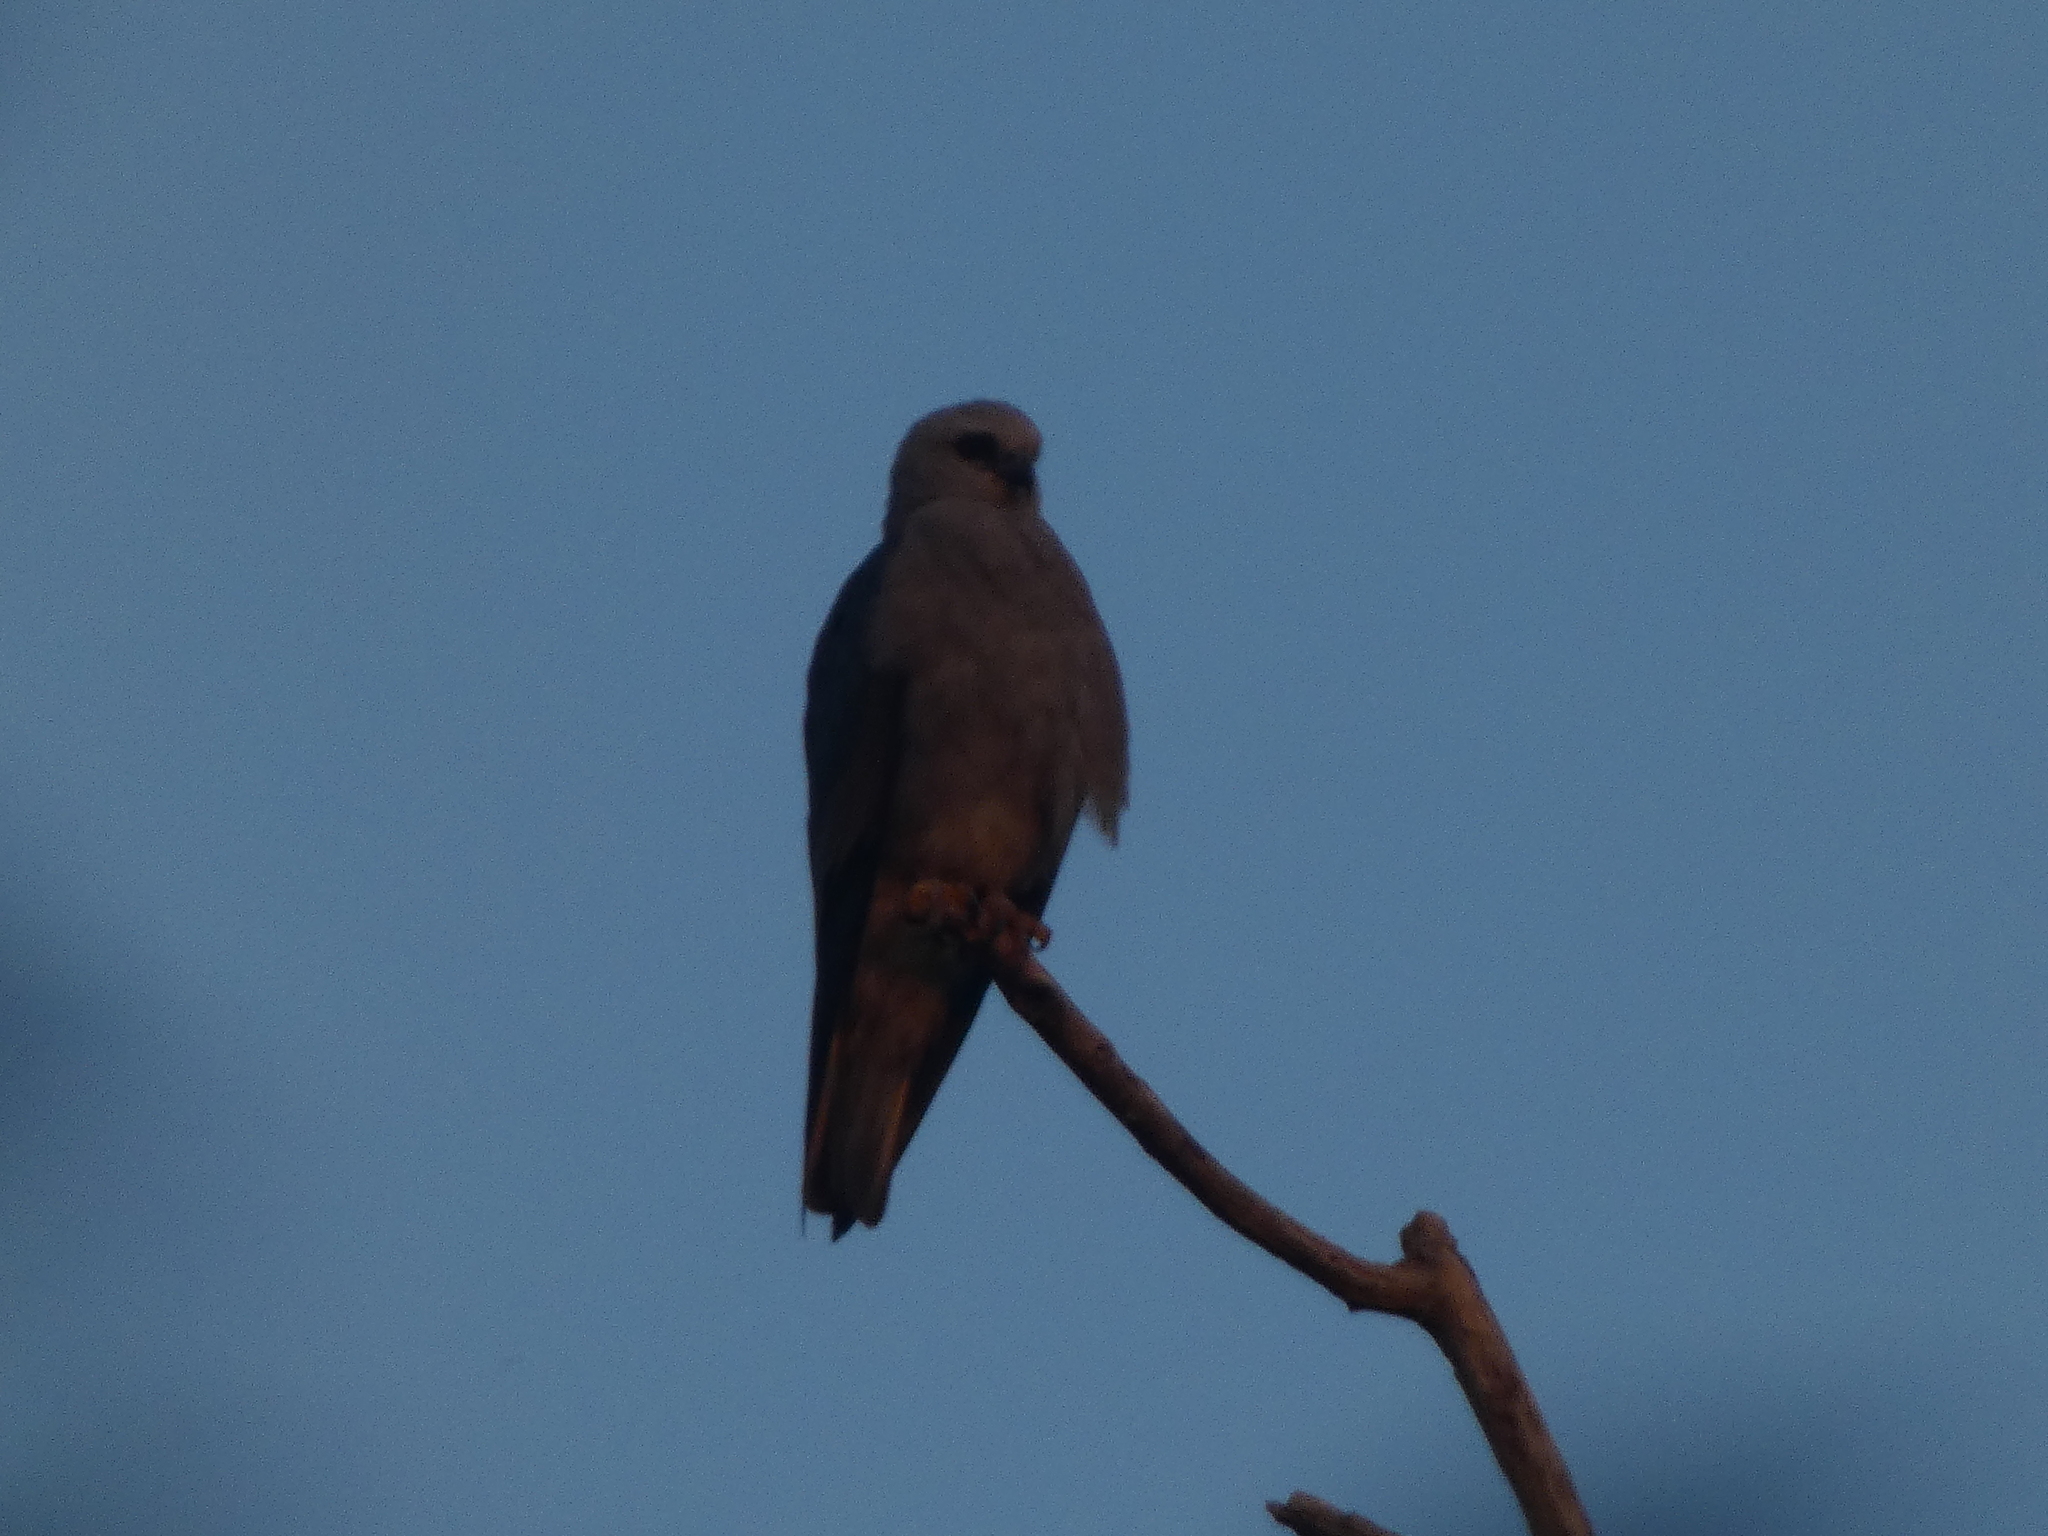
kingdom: Animalia
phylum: Chordata
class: Aves
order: Accipitriformes
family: Accipitridae
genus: Ictinia
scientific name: Ictinia mississippiensis
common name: Mississippi kite
